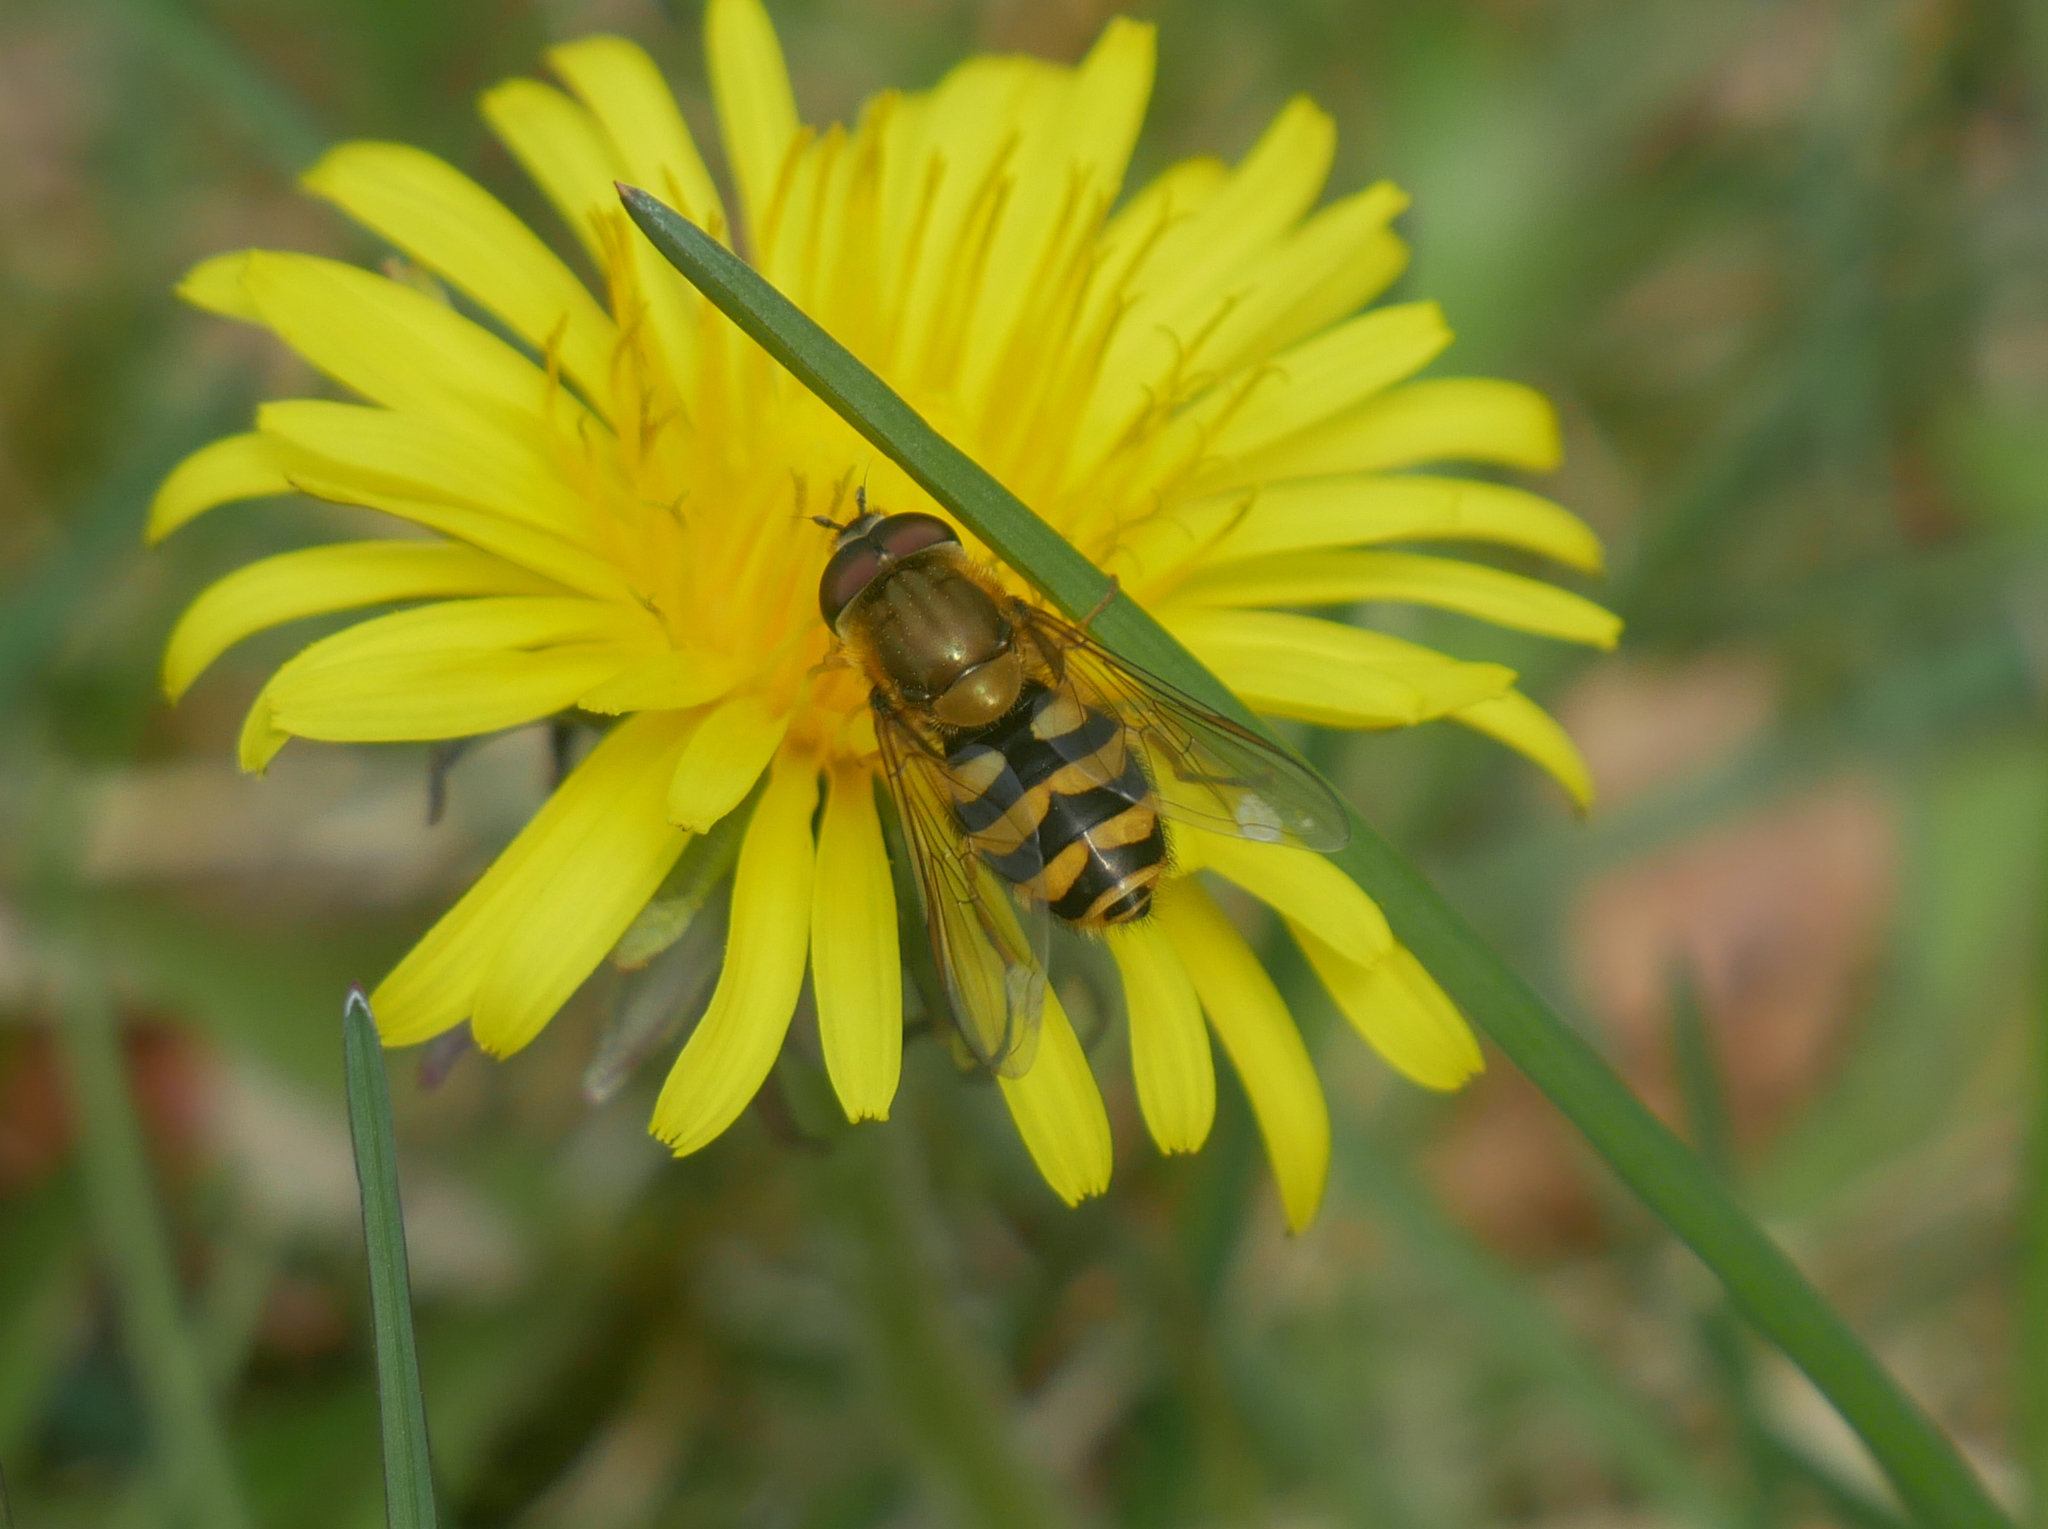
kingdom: Animalia
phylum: Arthropoda
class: Insecta
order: Diptera
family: Syrphidae
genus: Syrphus
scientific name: Syrphus
